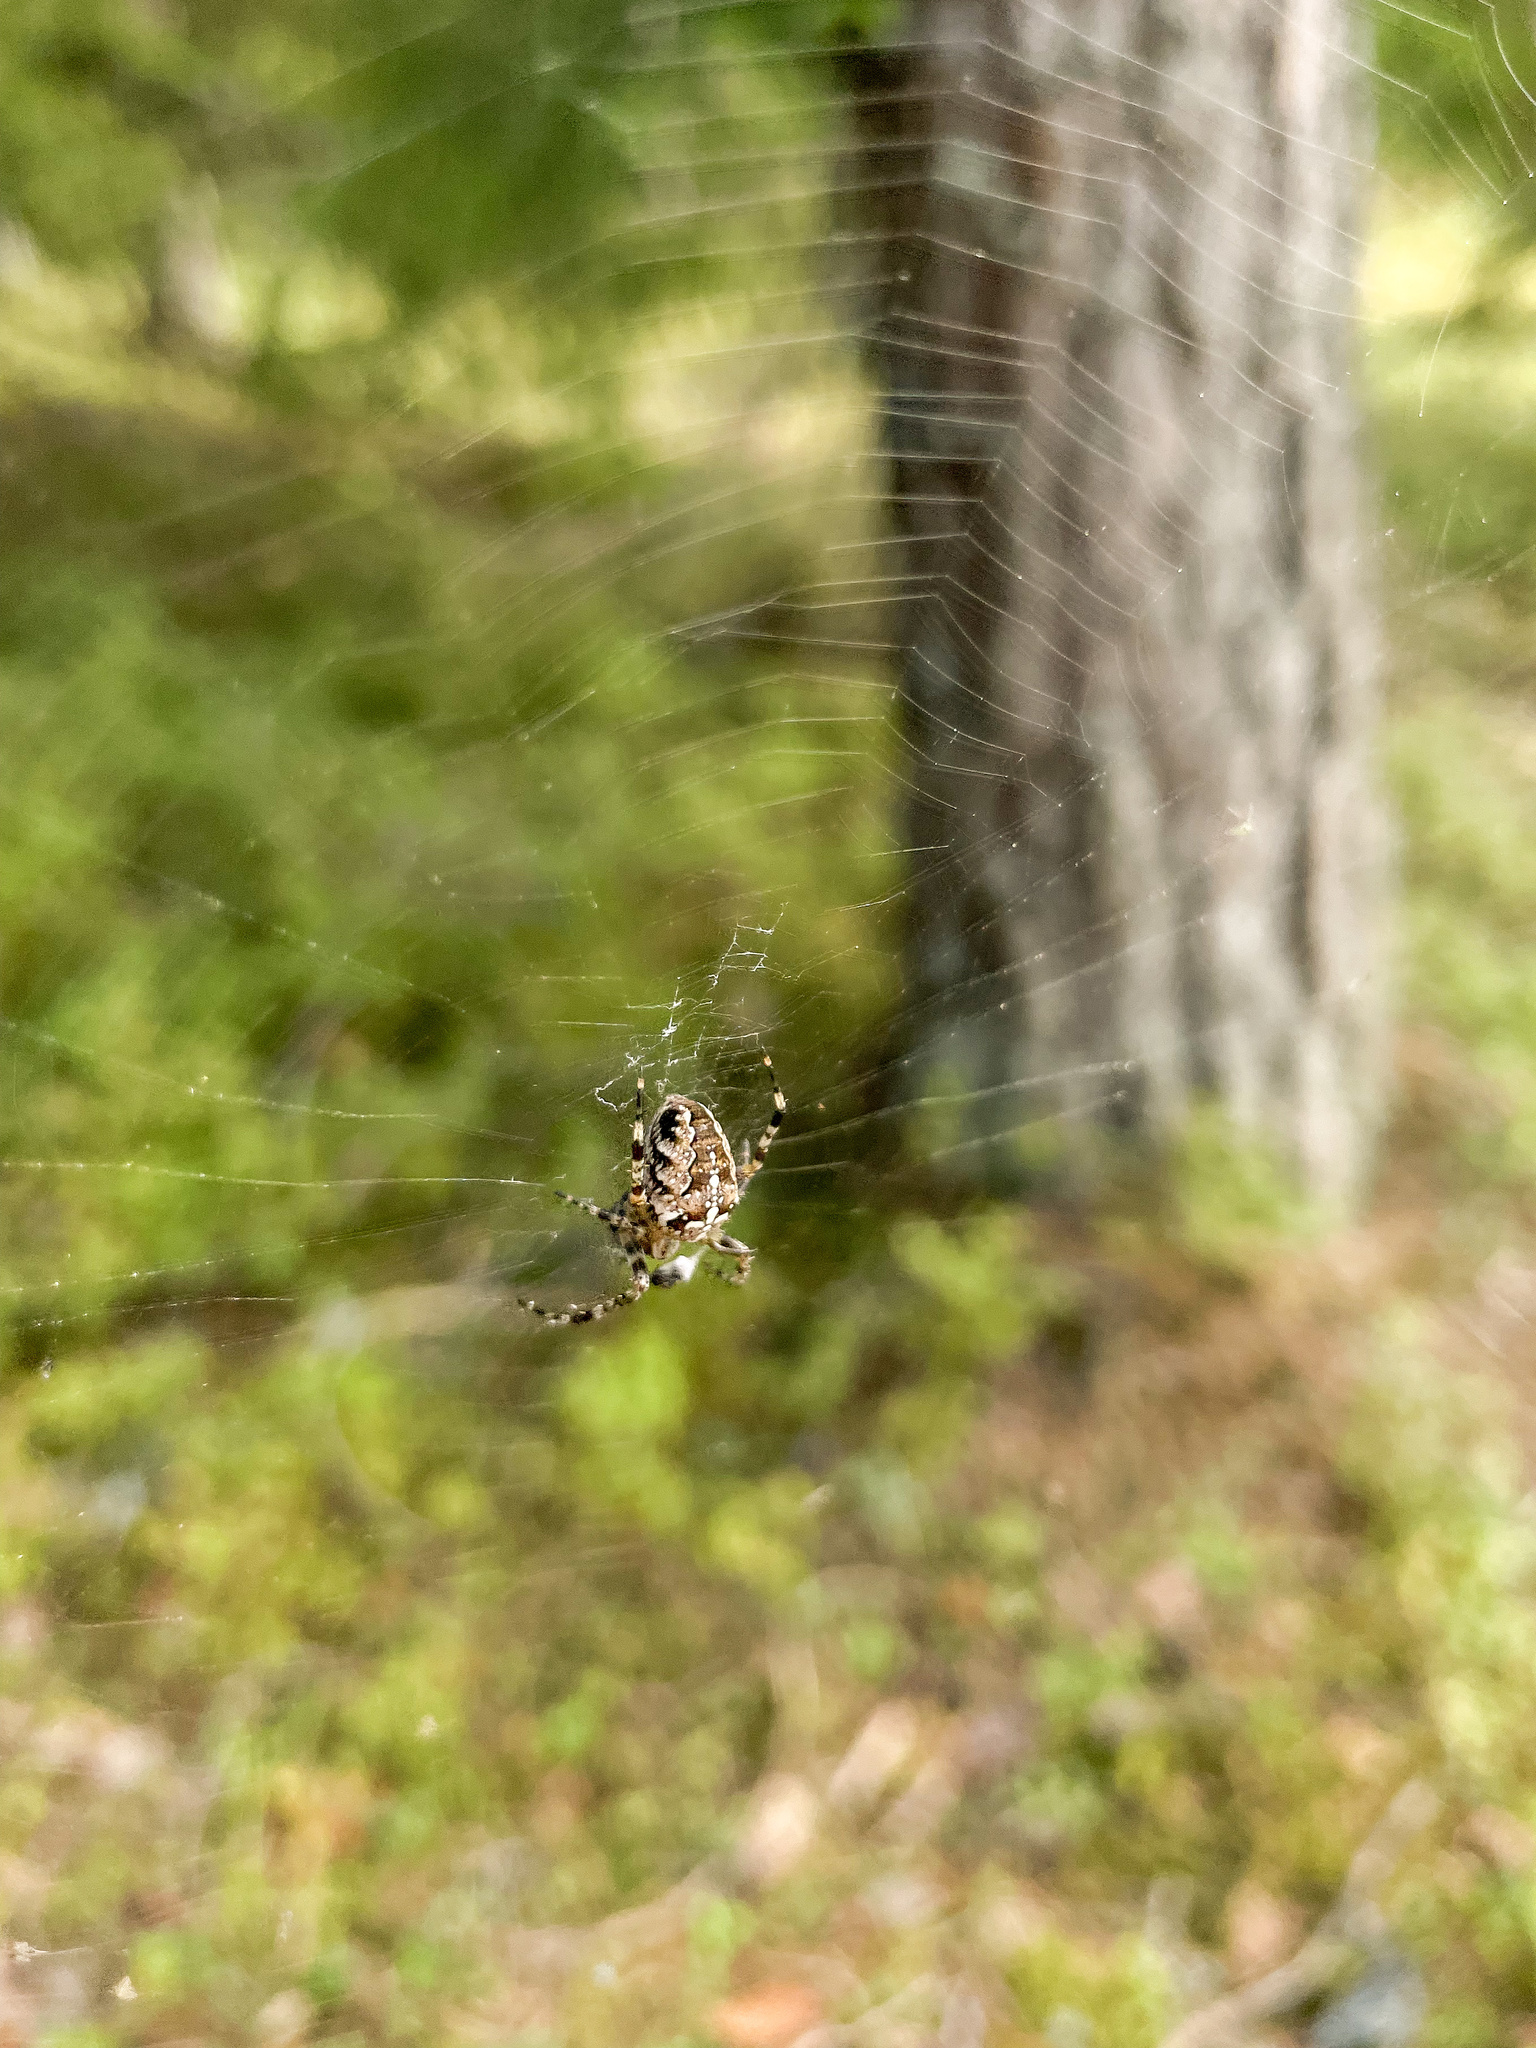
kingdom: Animalia
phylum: Arthropoda
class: Arachnida
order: Araneae
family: Araneidae
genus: Araneus
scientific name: Araneus diadematus
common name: Cross orbweaver
